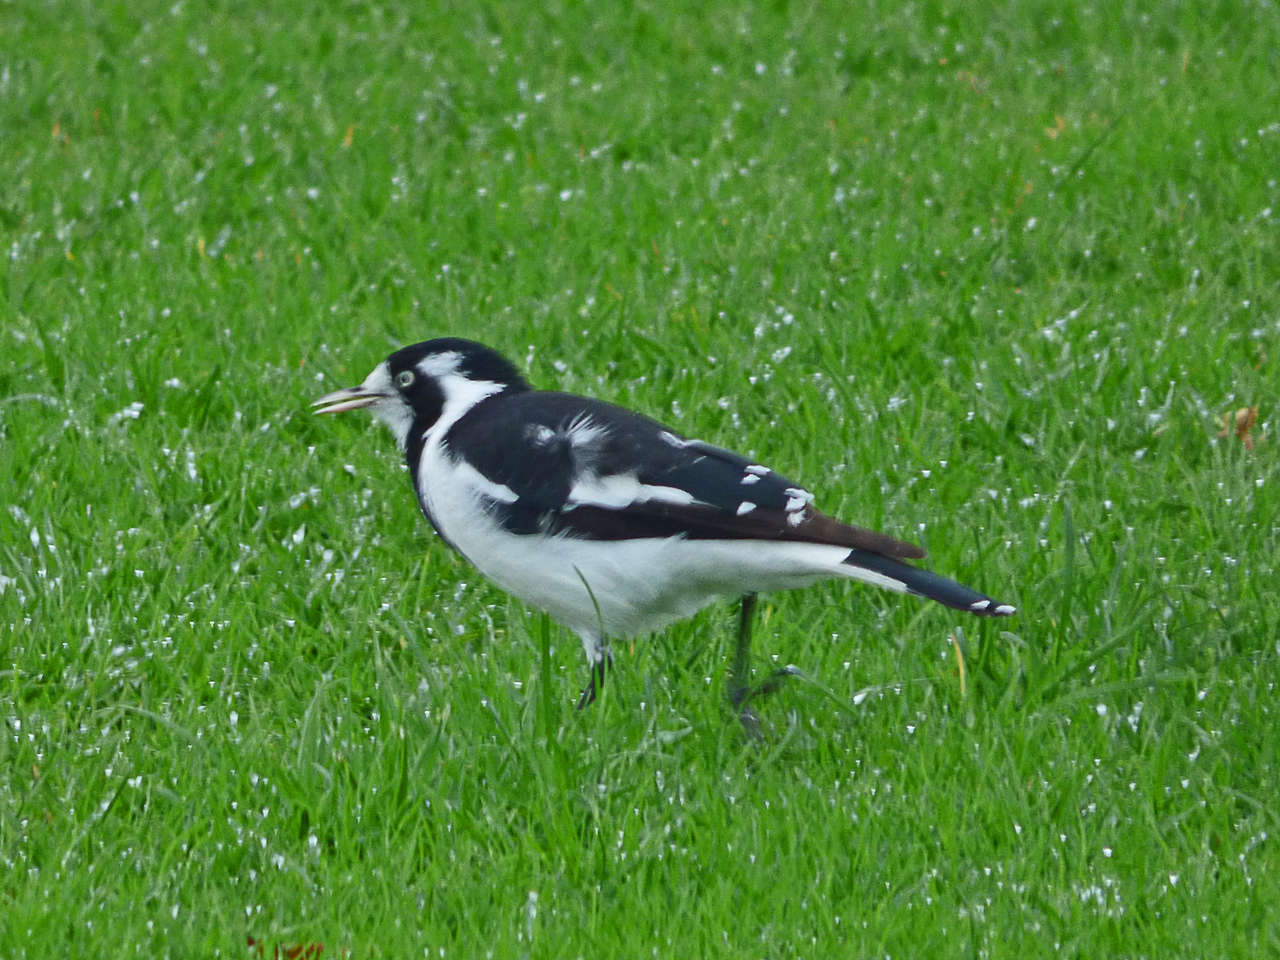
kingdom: Animalia
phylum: Chordata
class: Aves
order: Passeriformes
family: Monarchidae
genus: Grallina
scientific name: Grallina cyanoleuca
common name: Magpie-lark
